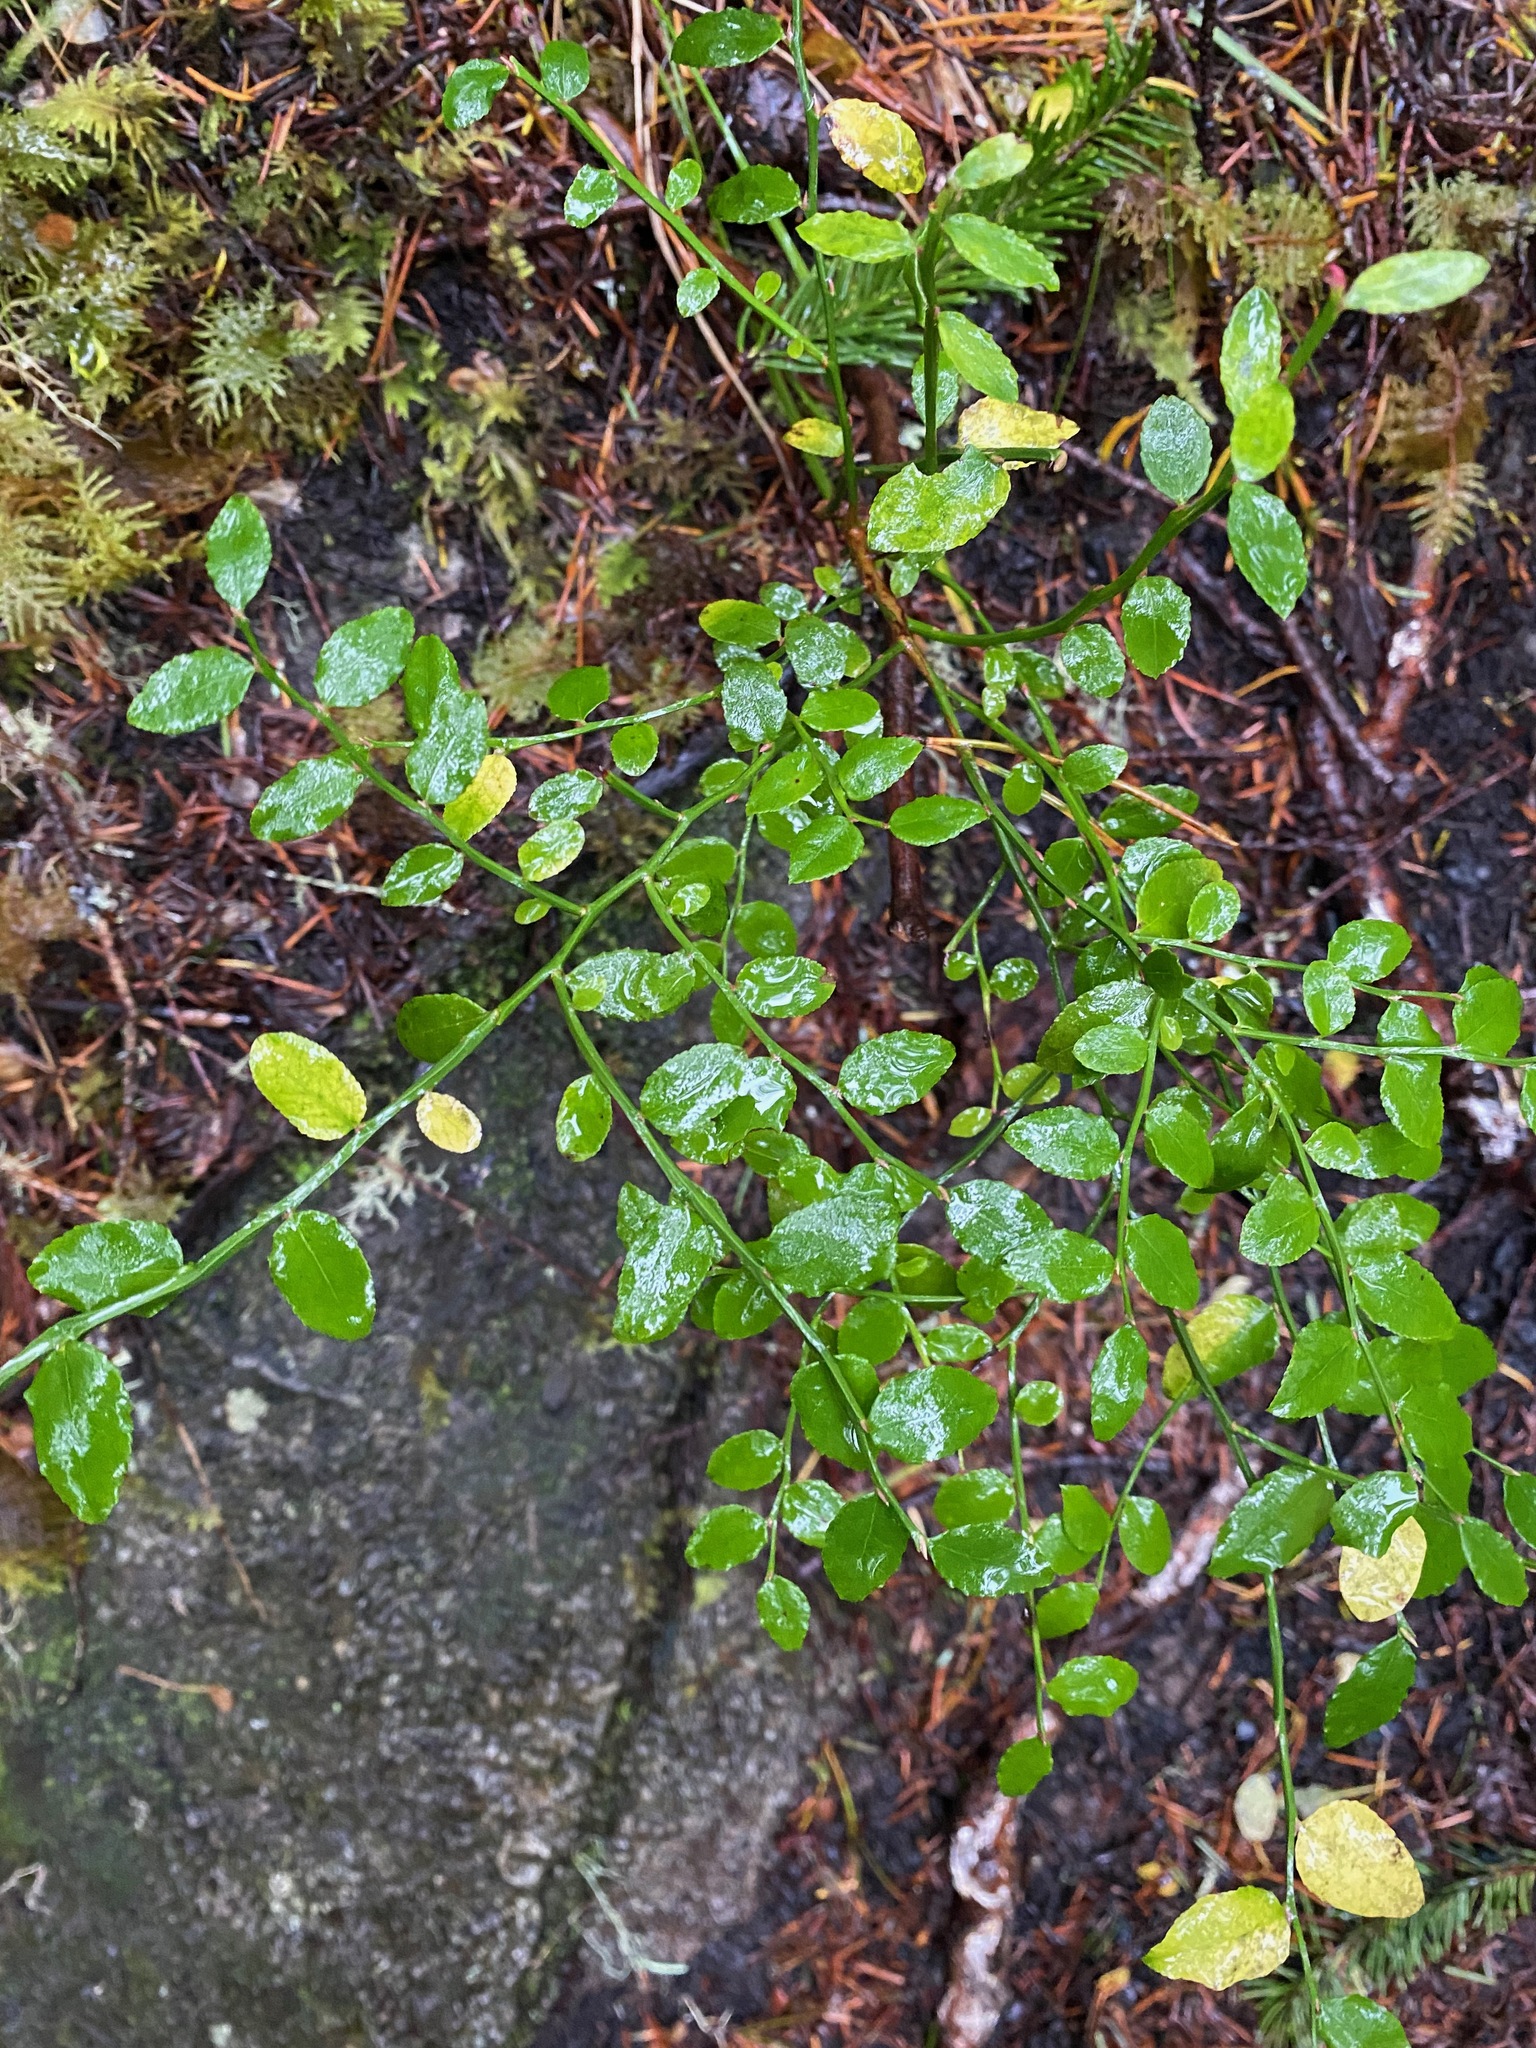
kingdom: Plantae
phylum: Tracheophyta
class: Magnoliopsida
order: Ericales
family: Ericaceae
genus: Vaccinium
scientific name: Vaccinium parvifolium
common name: Red-huckleberry
